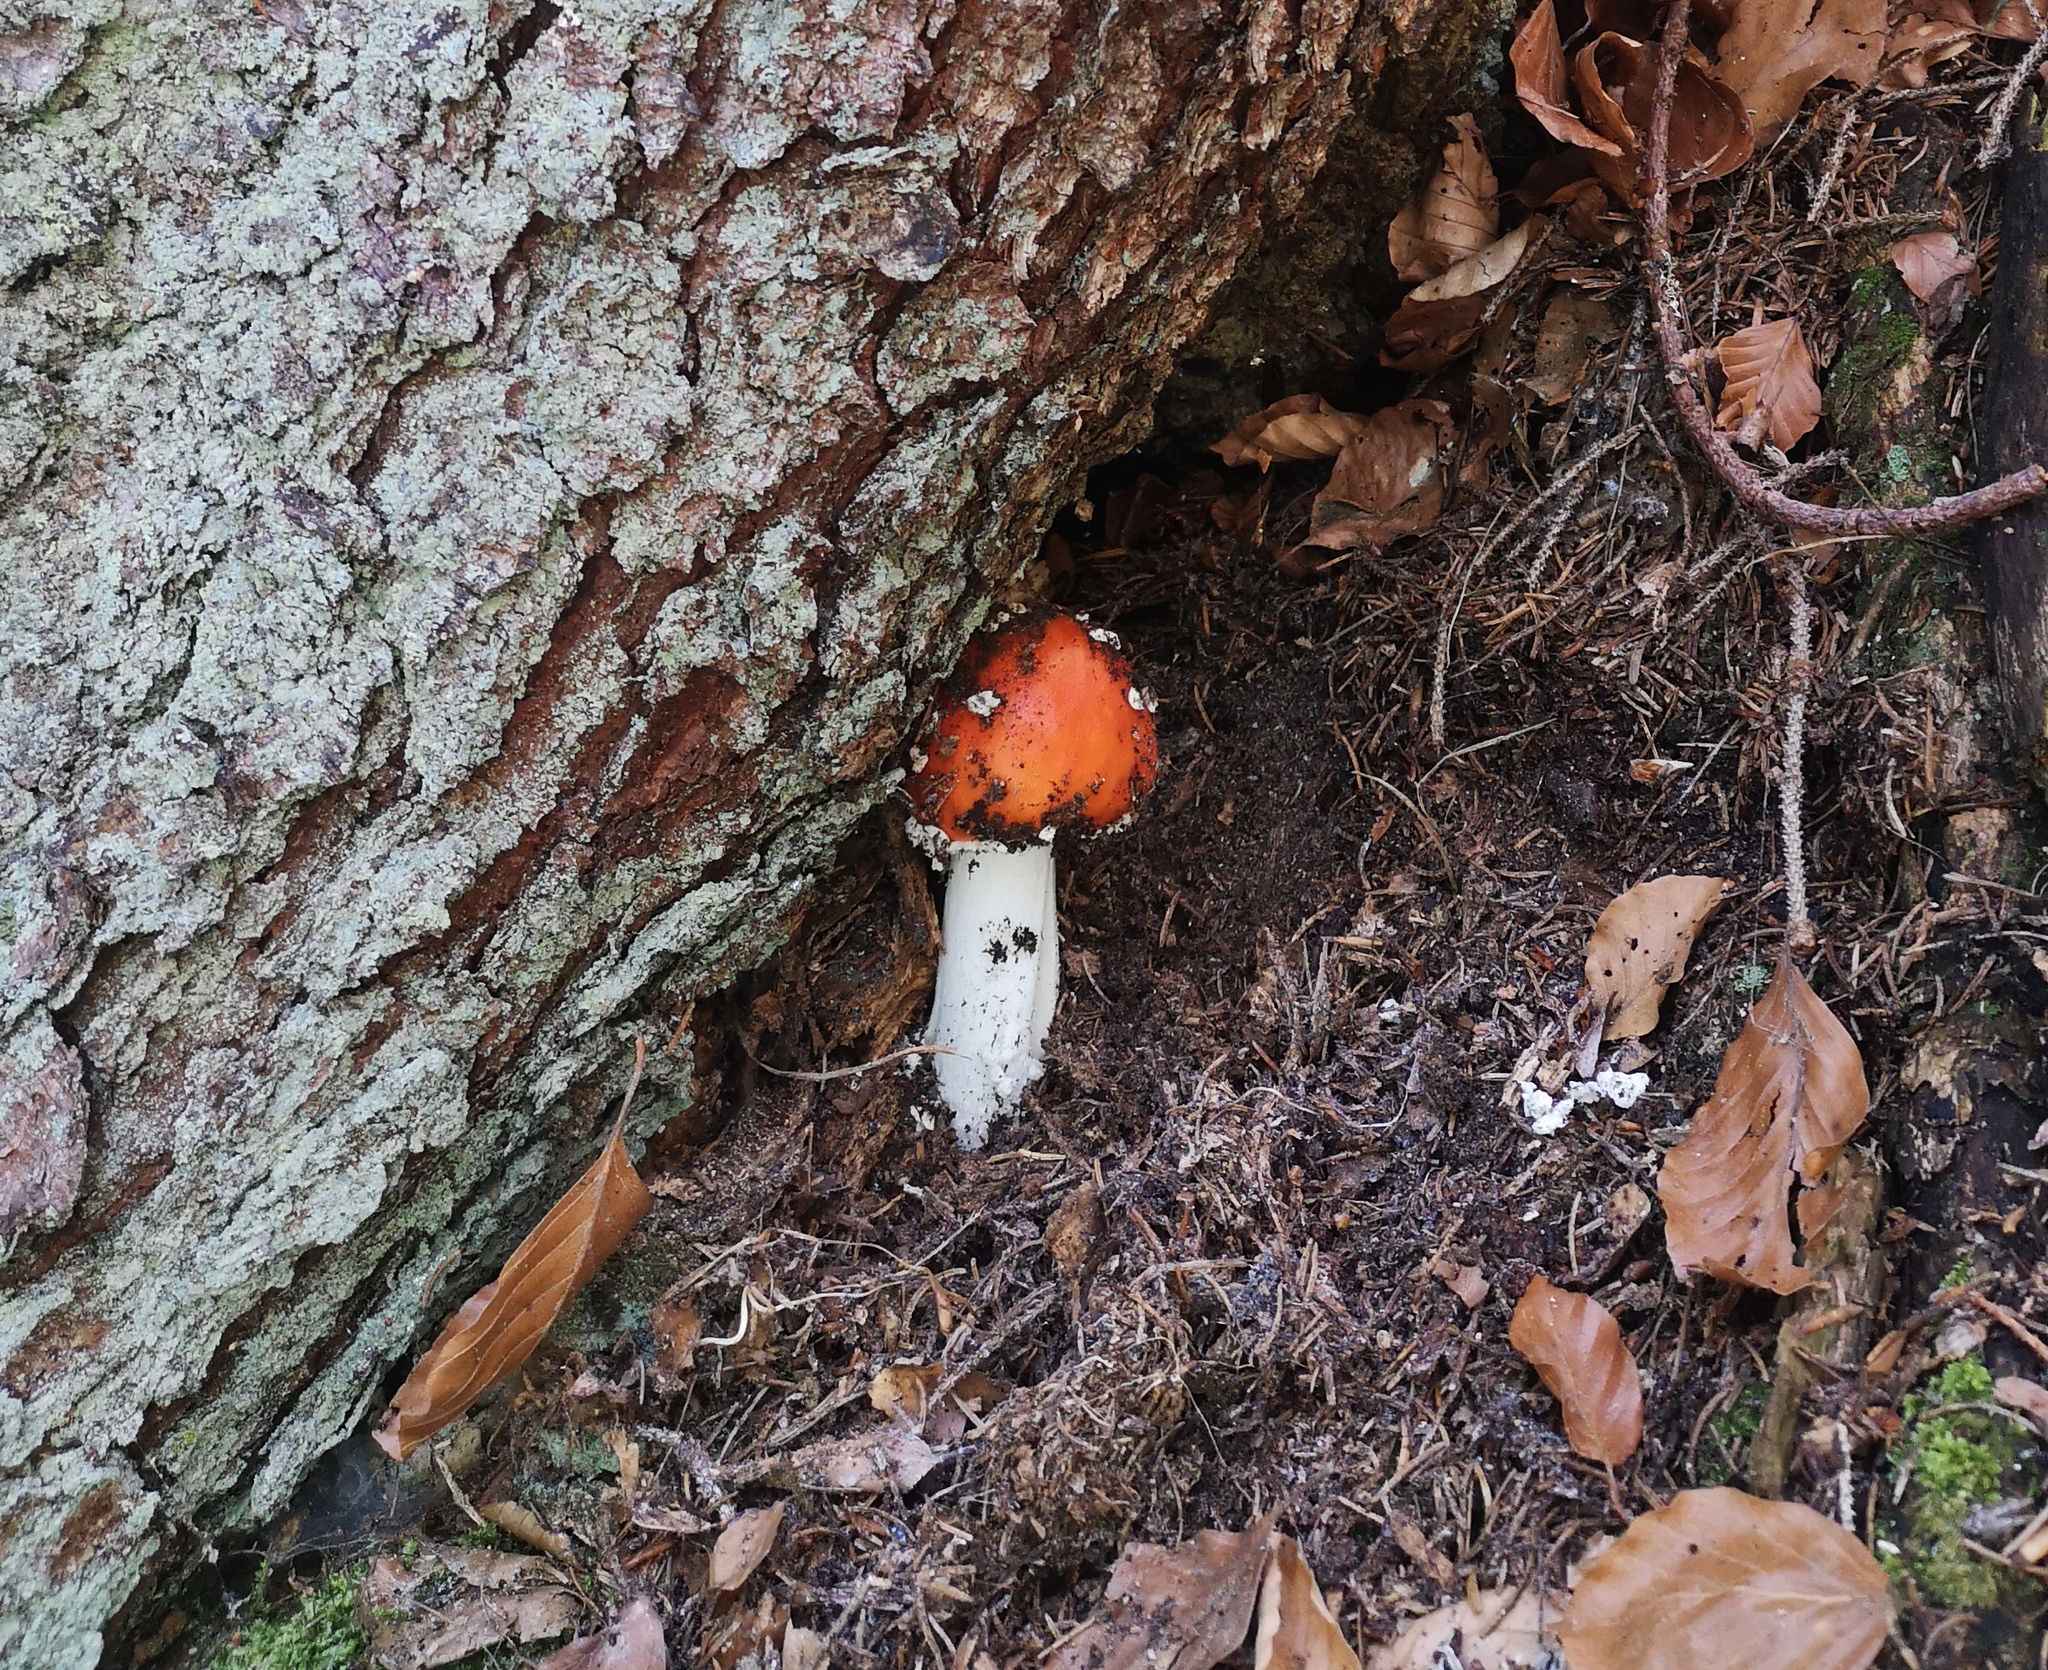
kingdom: Fungi
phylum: Basidiomycota
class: Agaricomycetes
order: Agaricales
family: Amanitaceae
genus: Amanita
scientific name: Amanita muscaria
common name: Fly agaric
